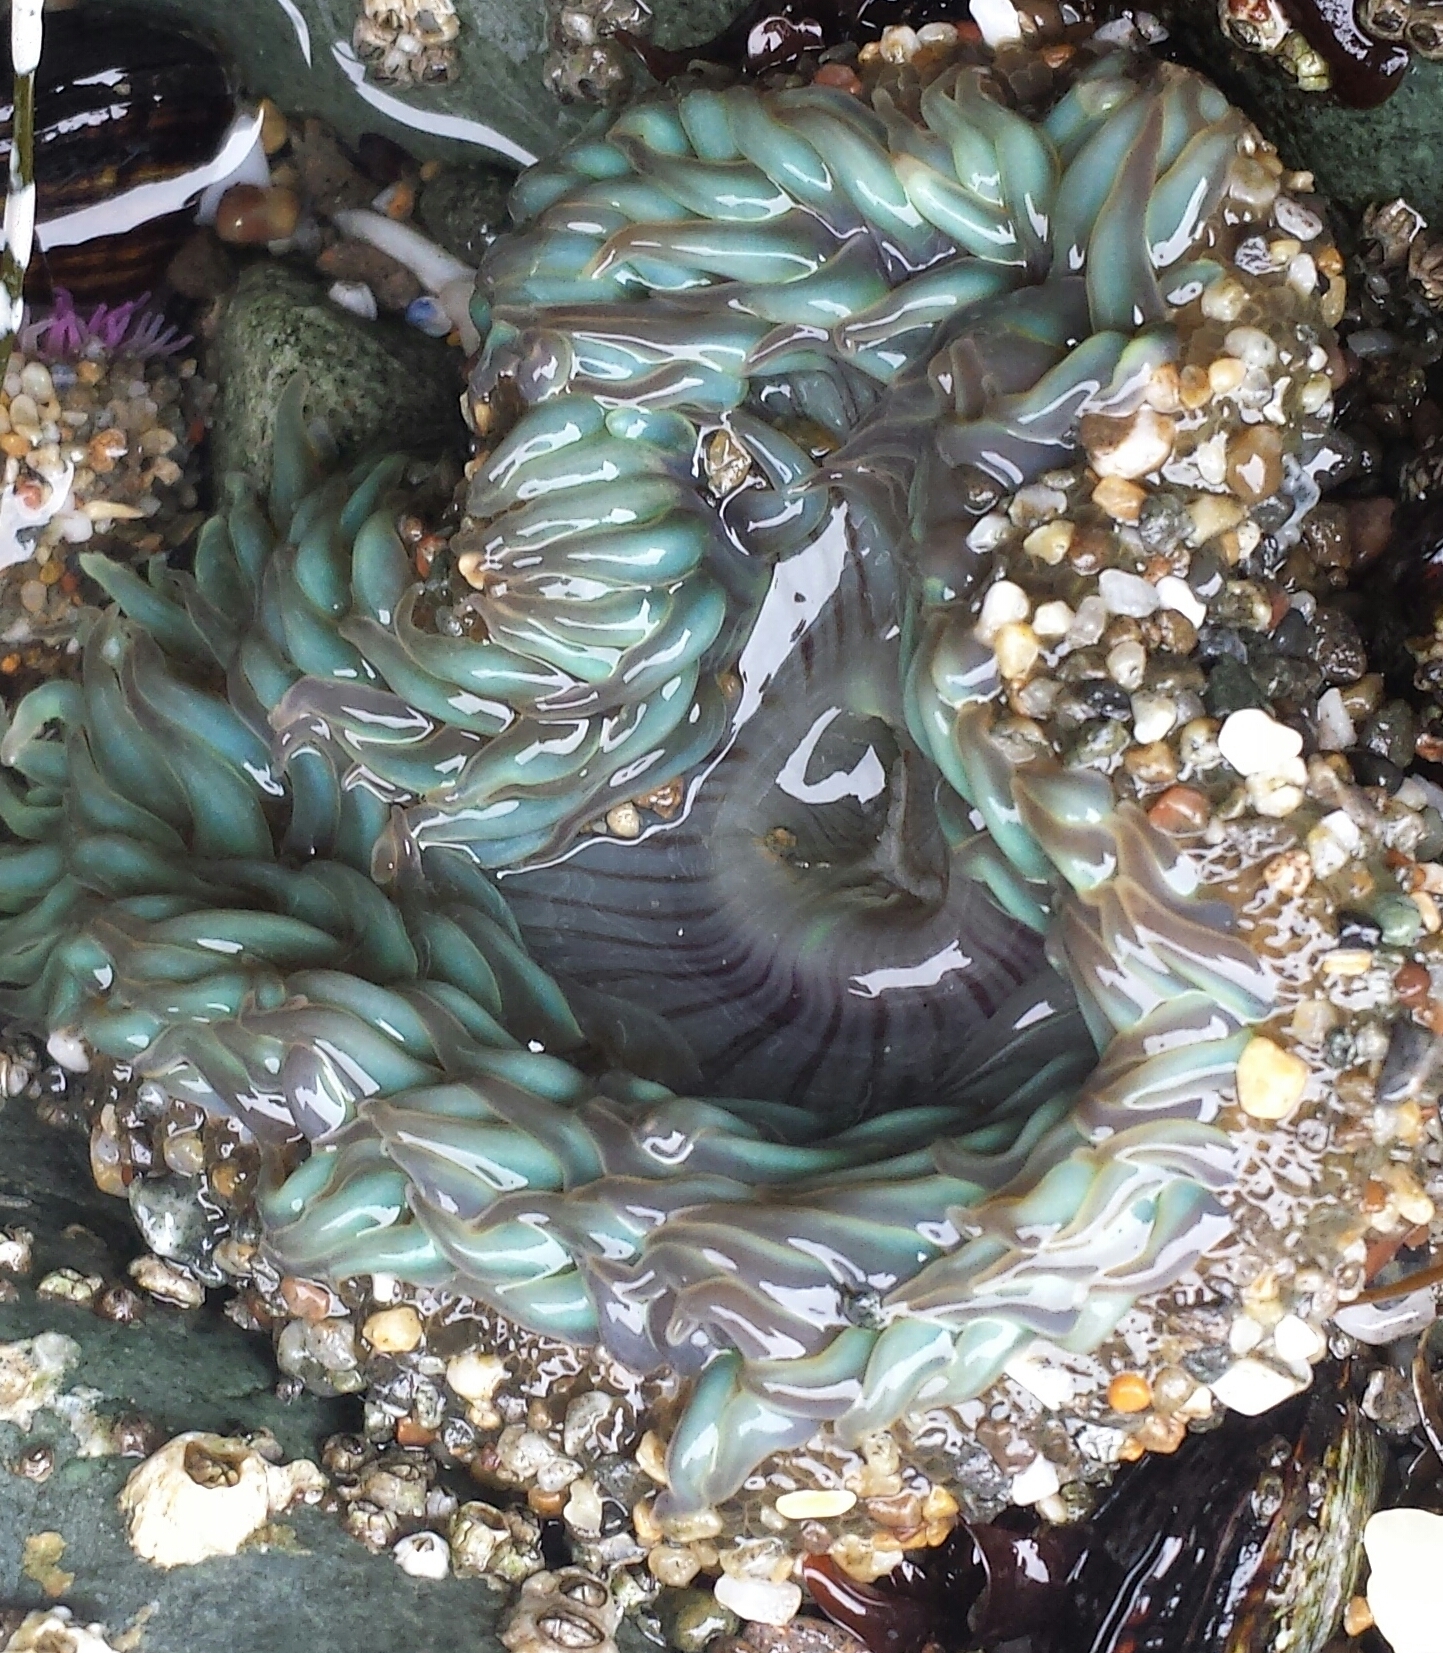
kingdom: Animalia
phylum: Cnidaria
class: Anthozoa
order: Actiniaria
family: Actiniidae
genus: Anthopleura
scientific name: Anthopleura sola
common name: Sun anemone
